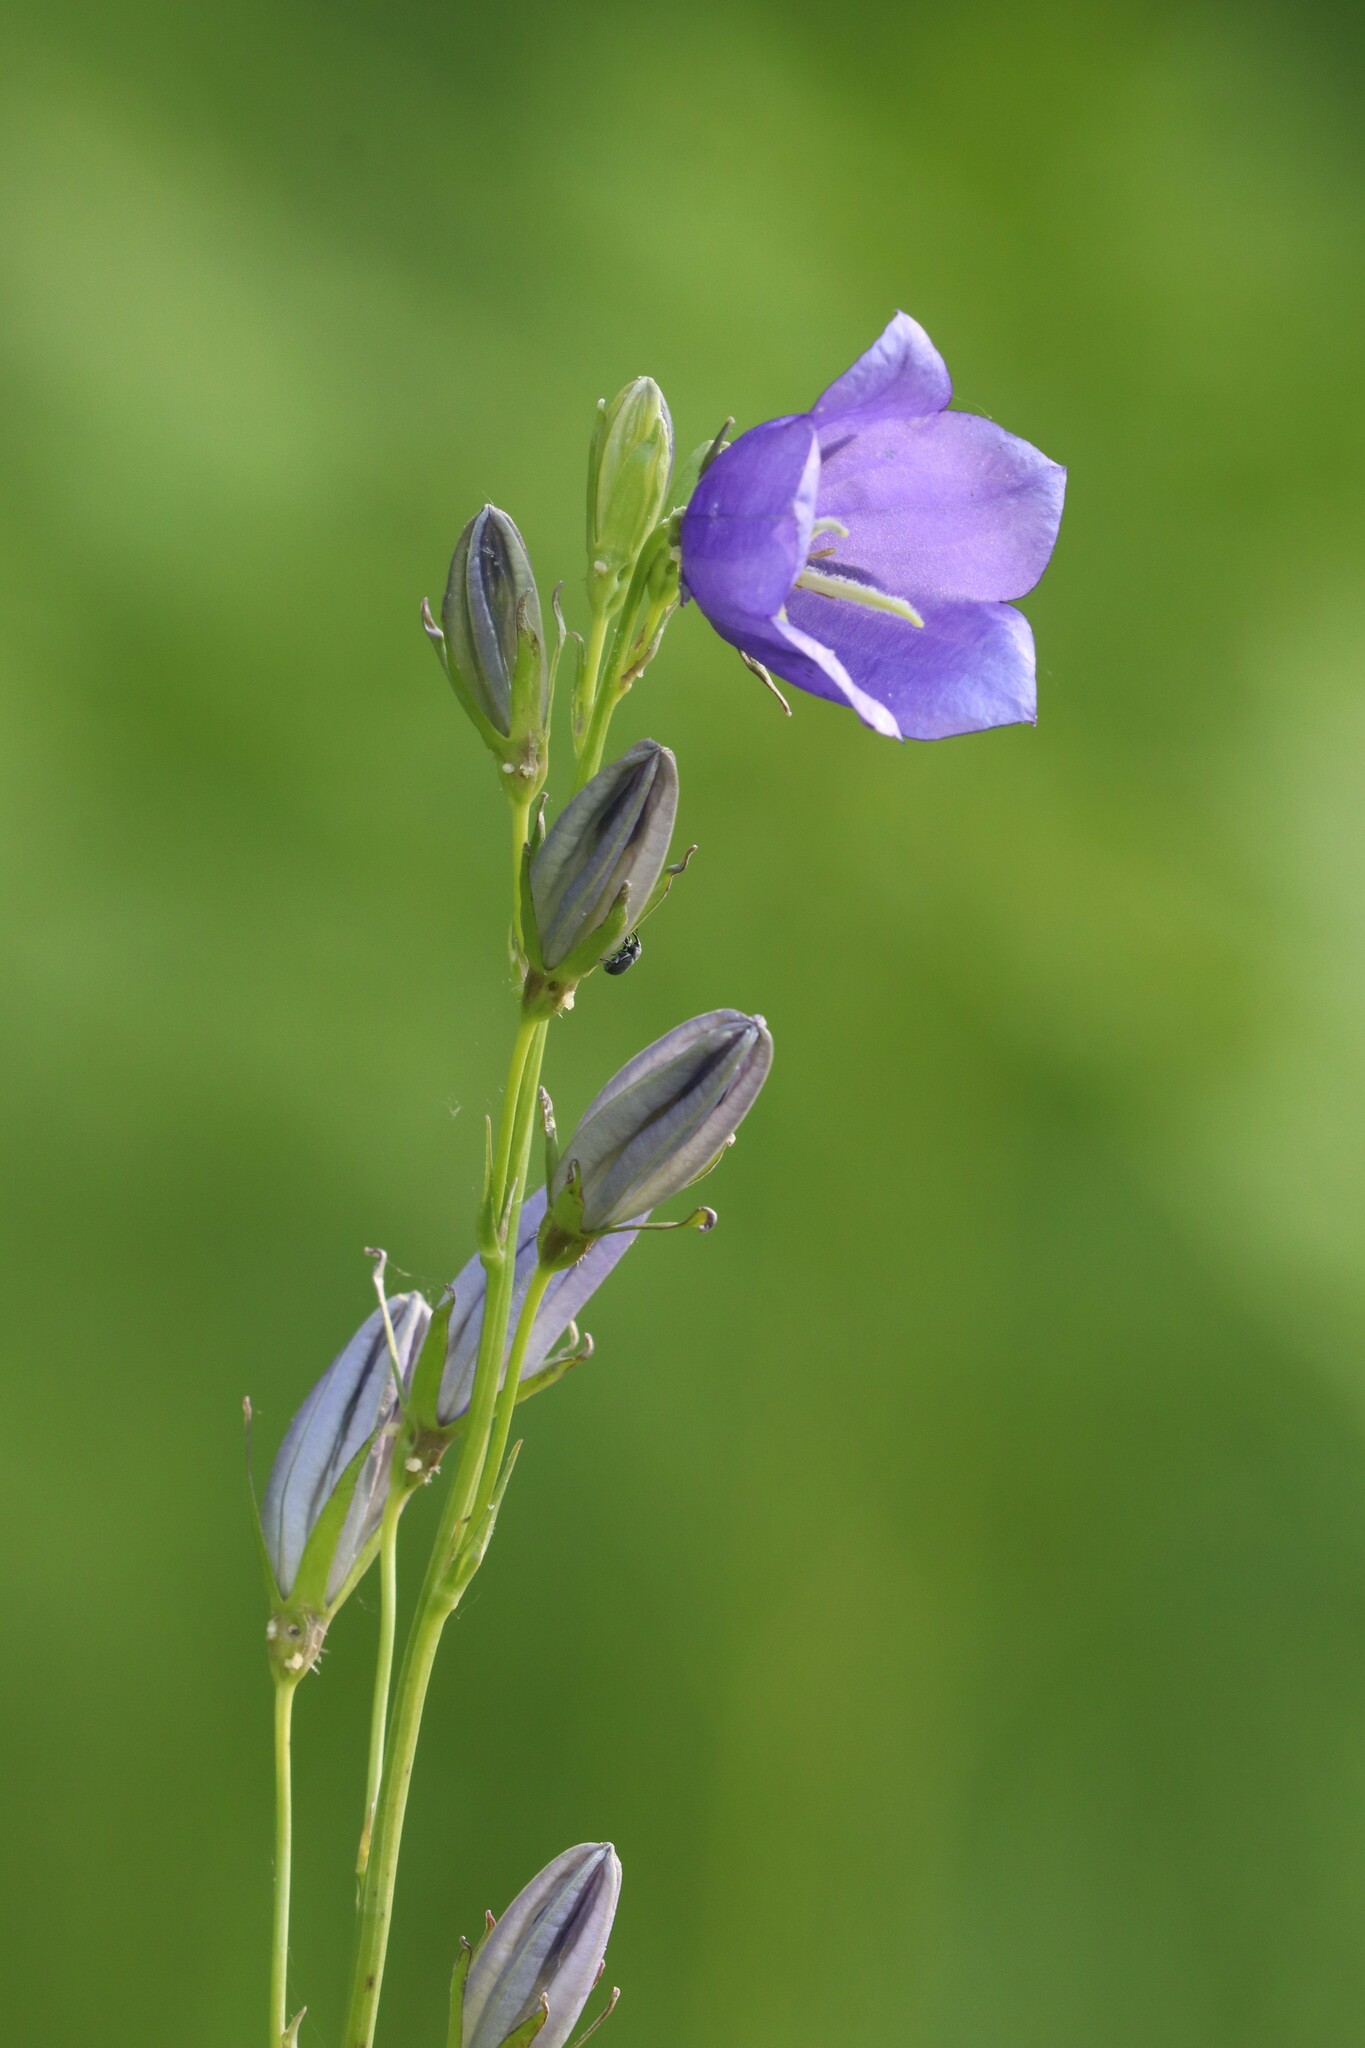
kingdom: Plantae
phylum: Tracheophyta
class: Magnoliopsida
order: Asterales
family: Campanulaceae
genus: Campanula
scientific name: Campanula persicifolia
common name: Peach-leaved bellflower
